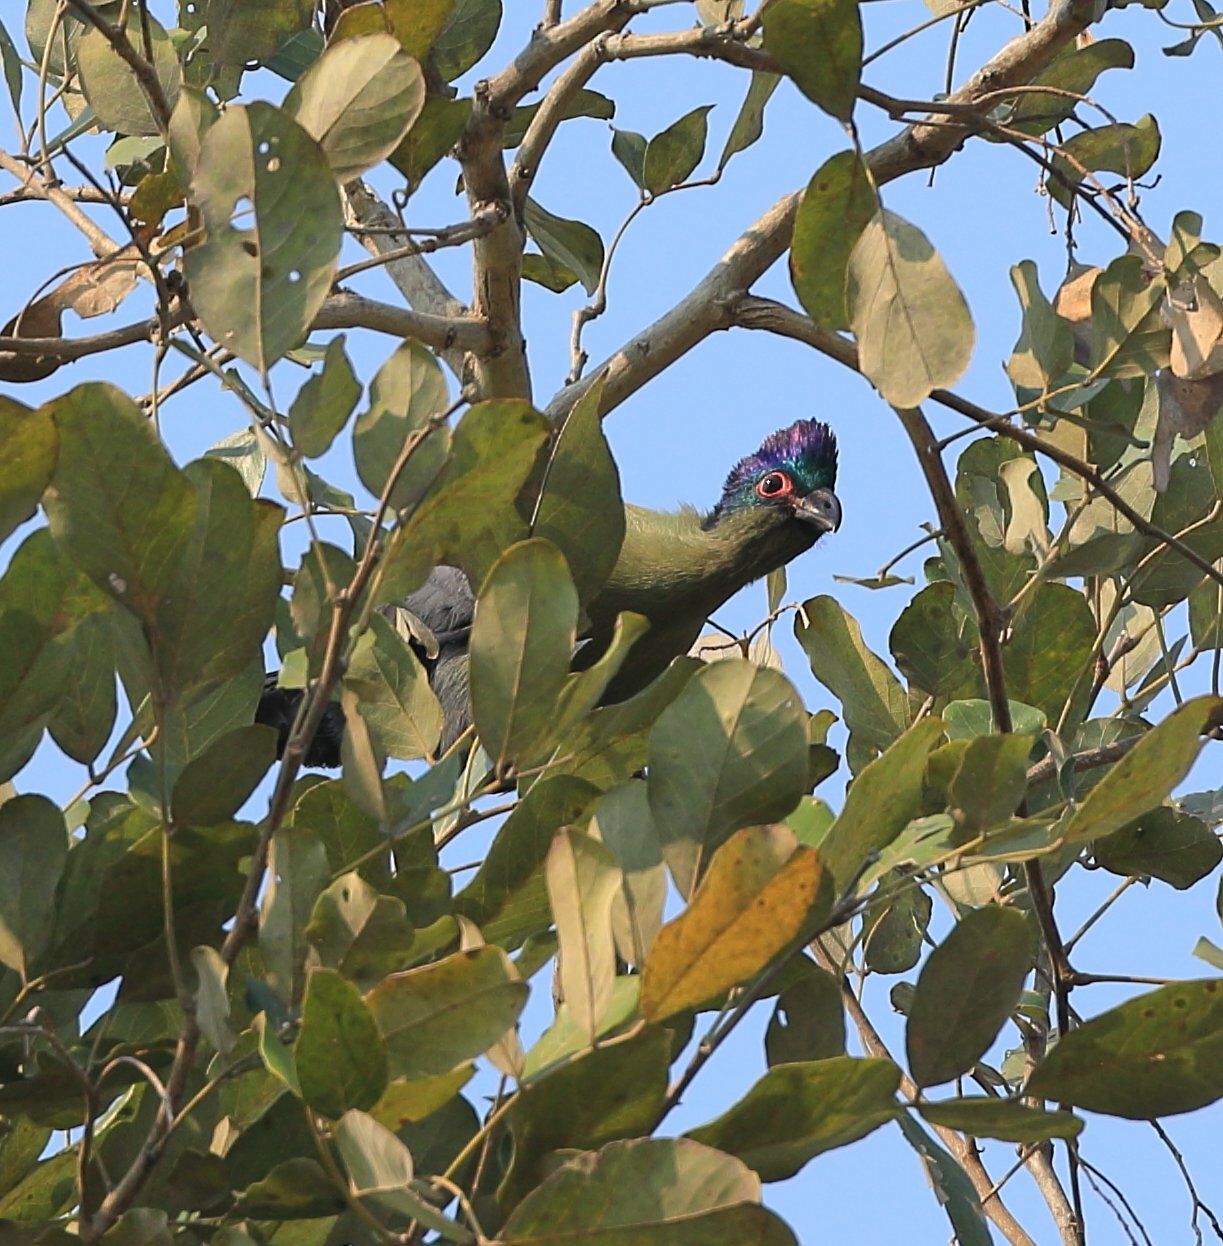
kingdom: Animalia
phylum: Chordata
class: Aves
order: Musophagiformes
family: Musophagidae
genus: Tauraco
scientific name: Tauraco porphyreolophus
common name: Purple-crested turaco
